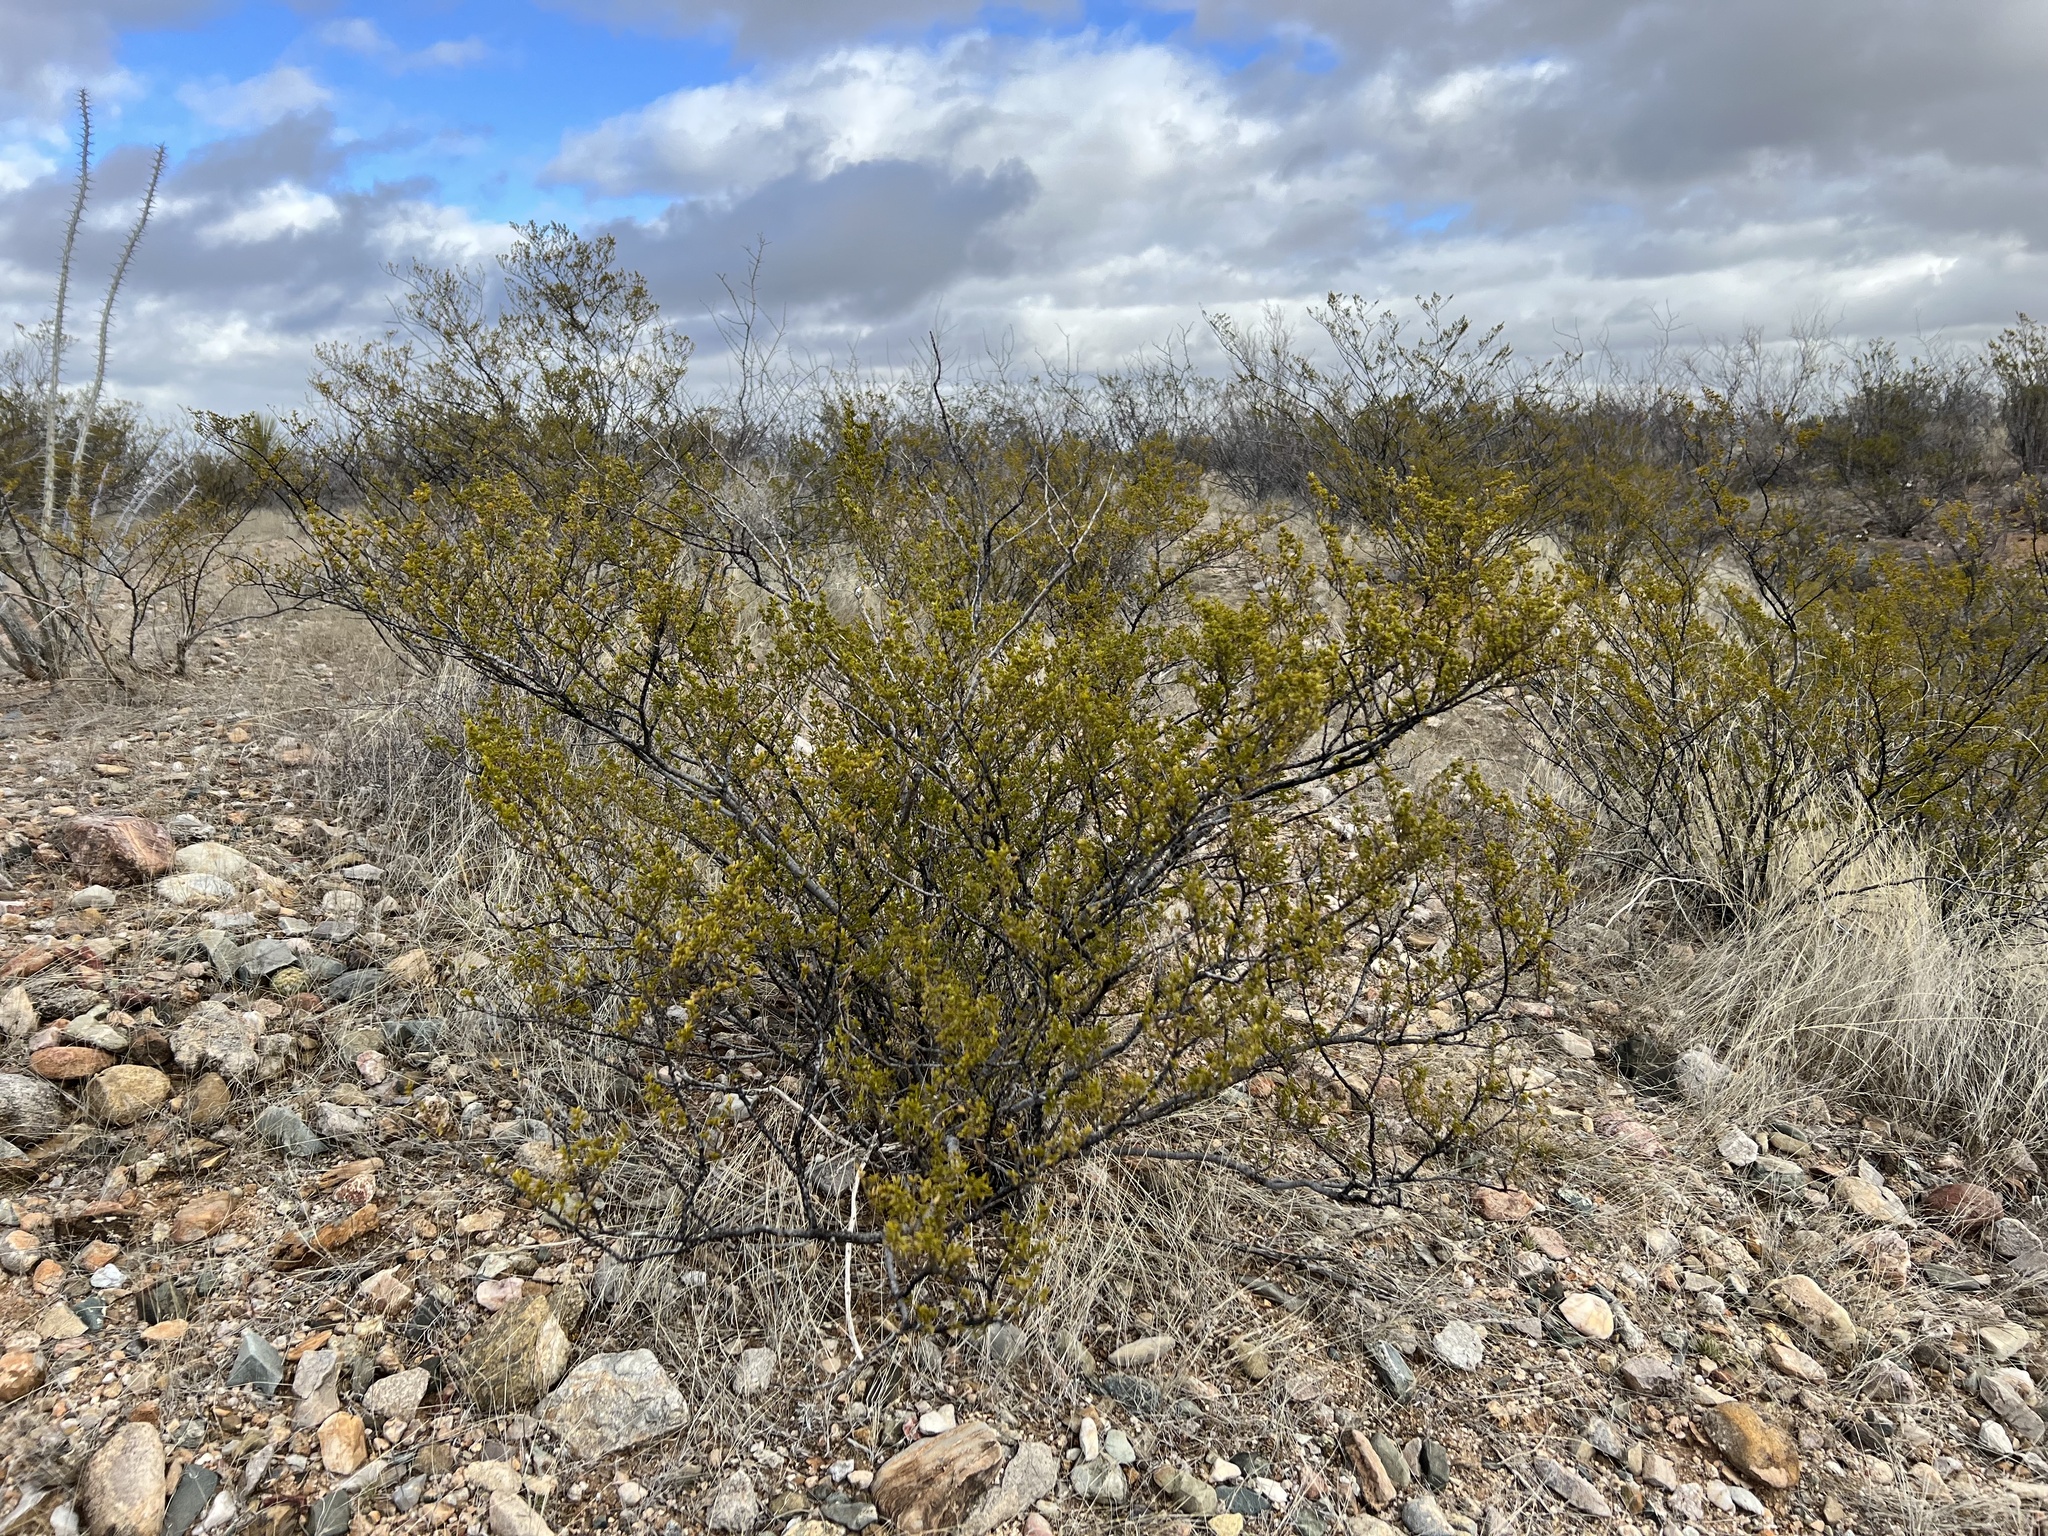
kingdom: Plantae
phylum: Tracheophyta
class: Magnoliopsida
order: Zygophyllales
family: Zygophyllaceae
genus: Larrea
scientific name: Larrea tridentata
